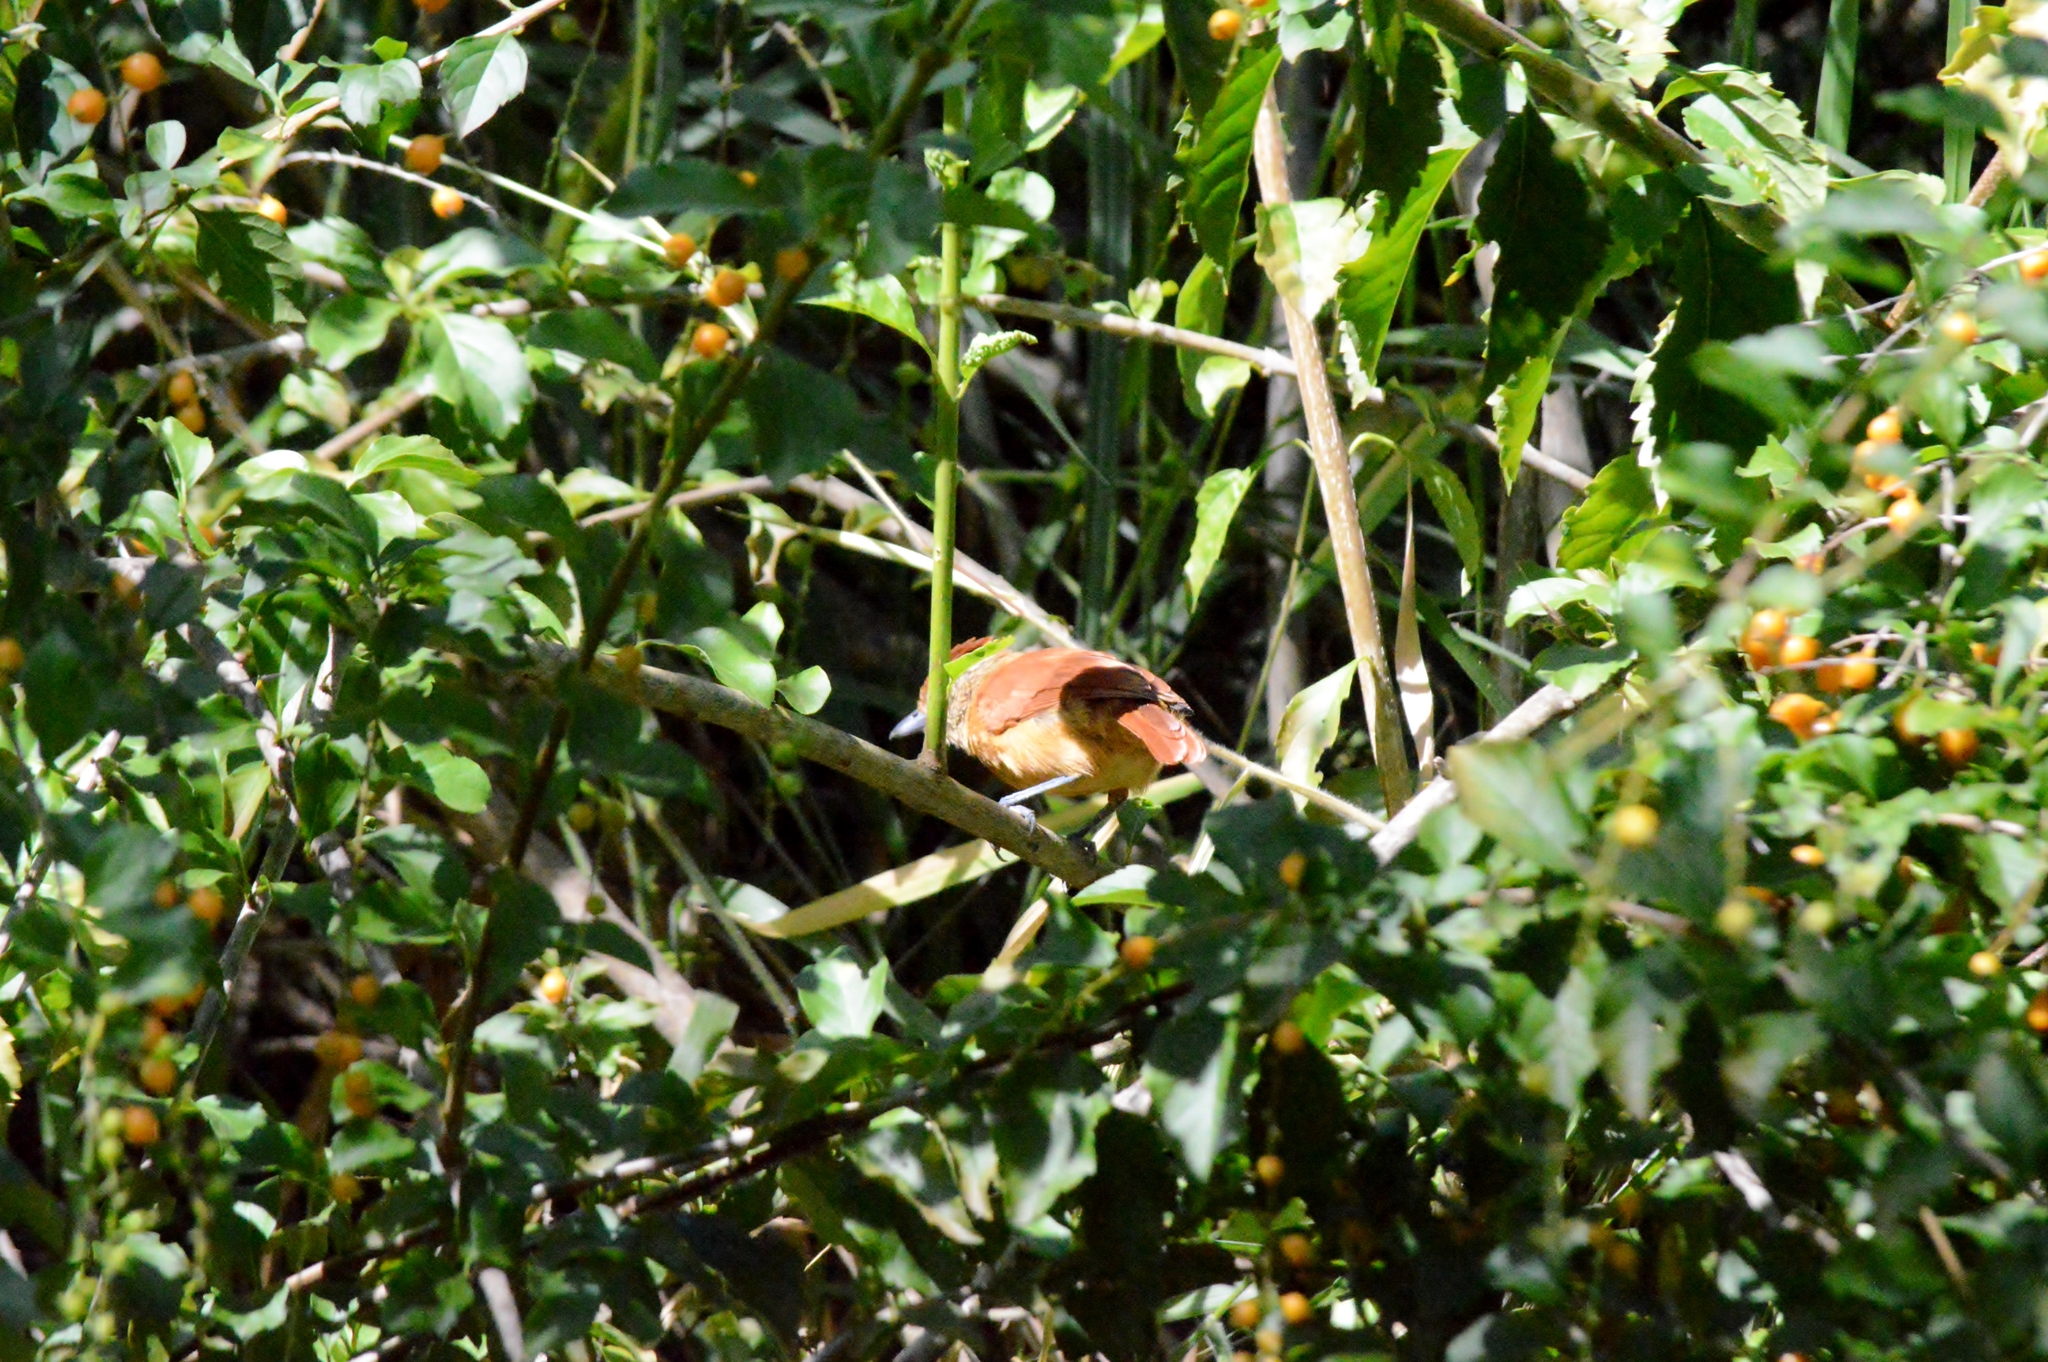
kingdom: Animalia
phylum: Chordata
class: Aves
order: Passeriformes
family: Thamnophilidae
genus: Taraba
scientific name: Taraba major
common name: Great antshrike
